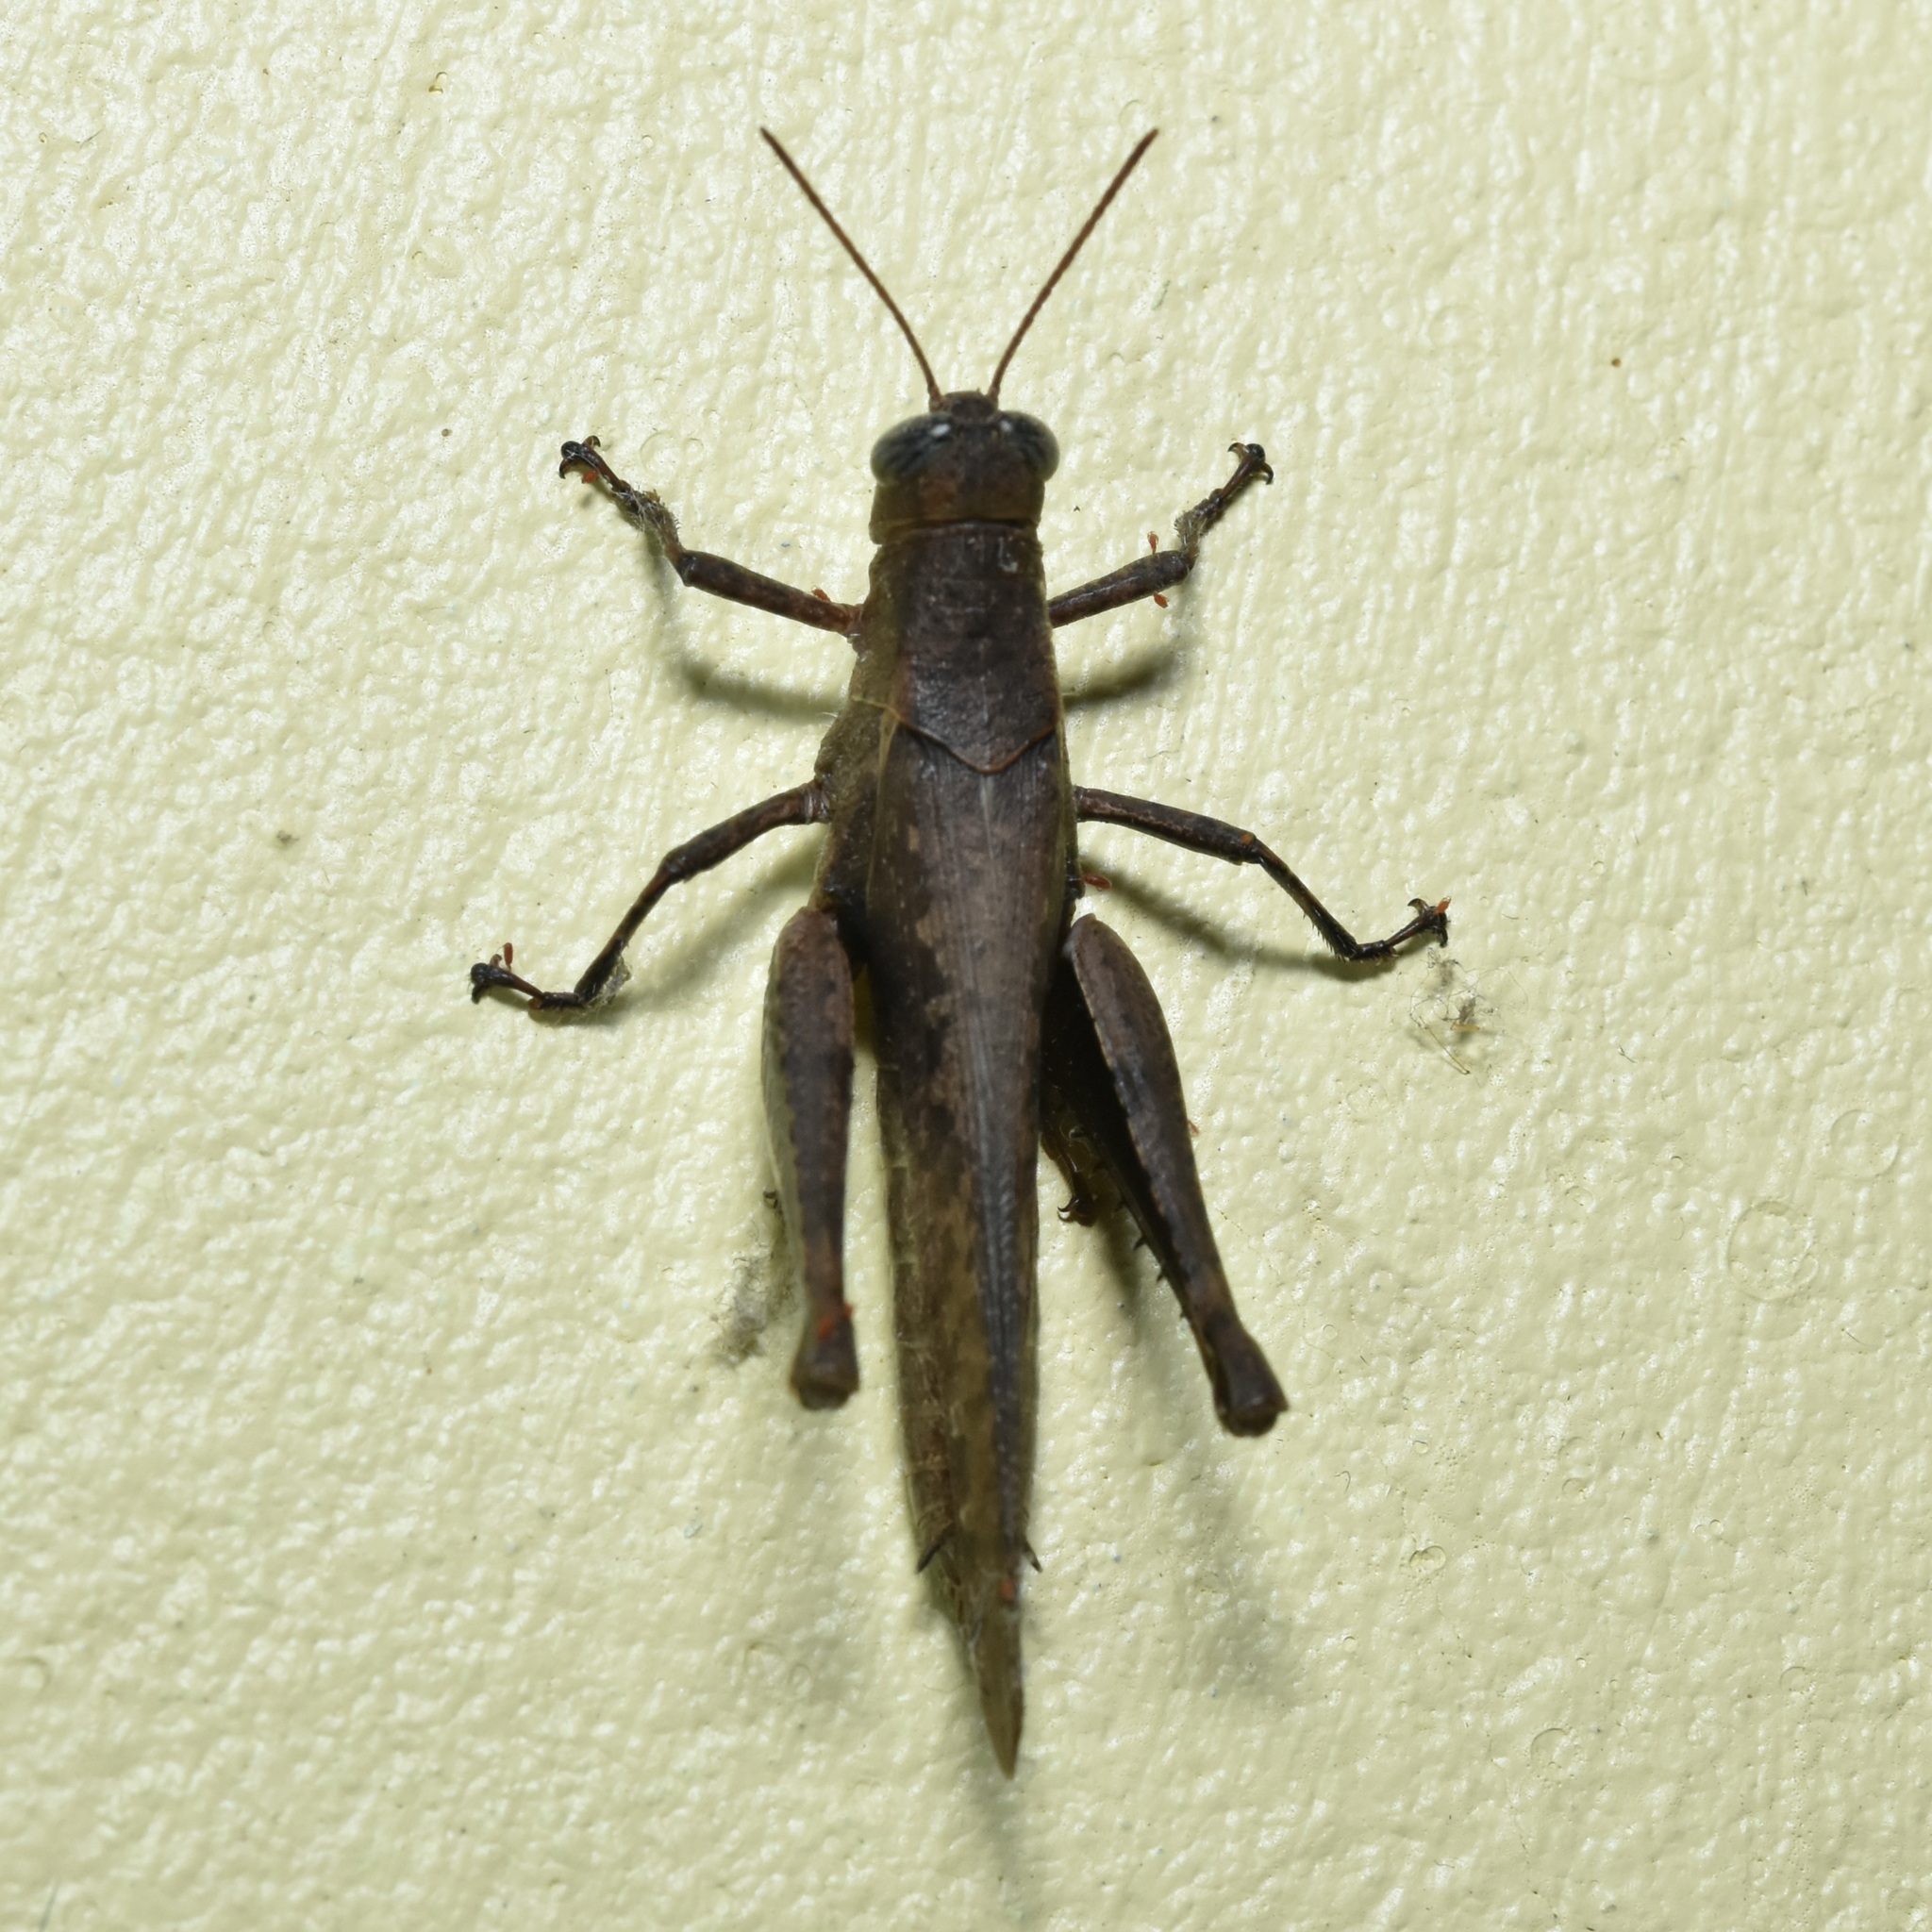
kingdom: Animalia
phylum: Arthropoda
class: Insecta
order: Orthoptera
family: Acrididae
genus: Abracris
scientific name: Abracris flavolineata
